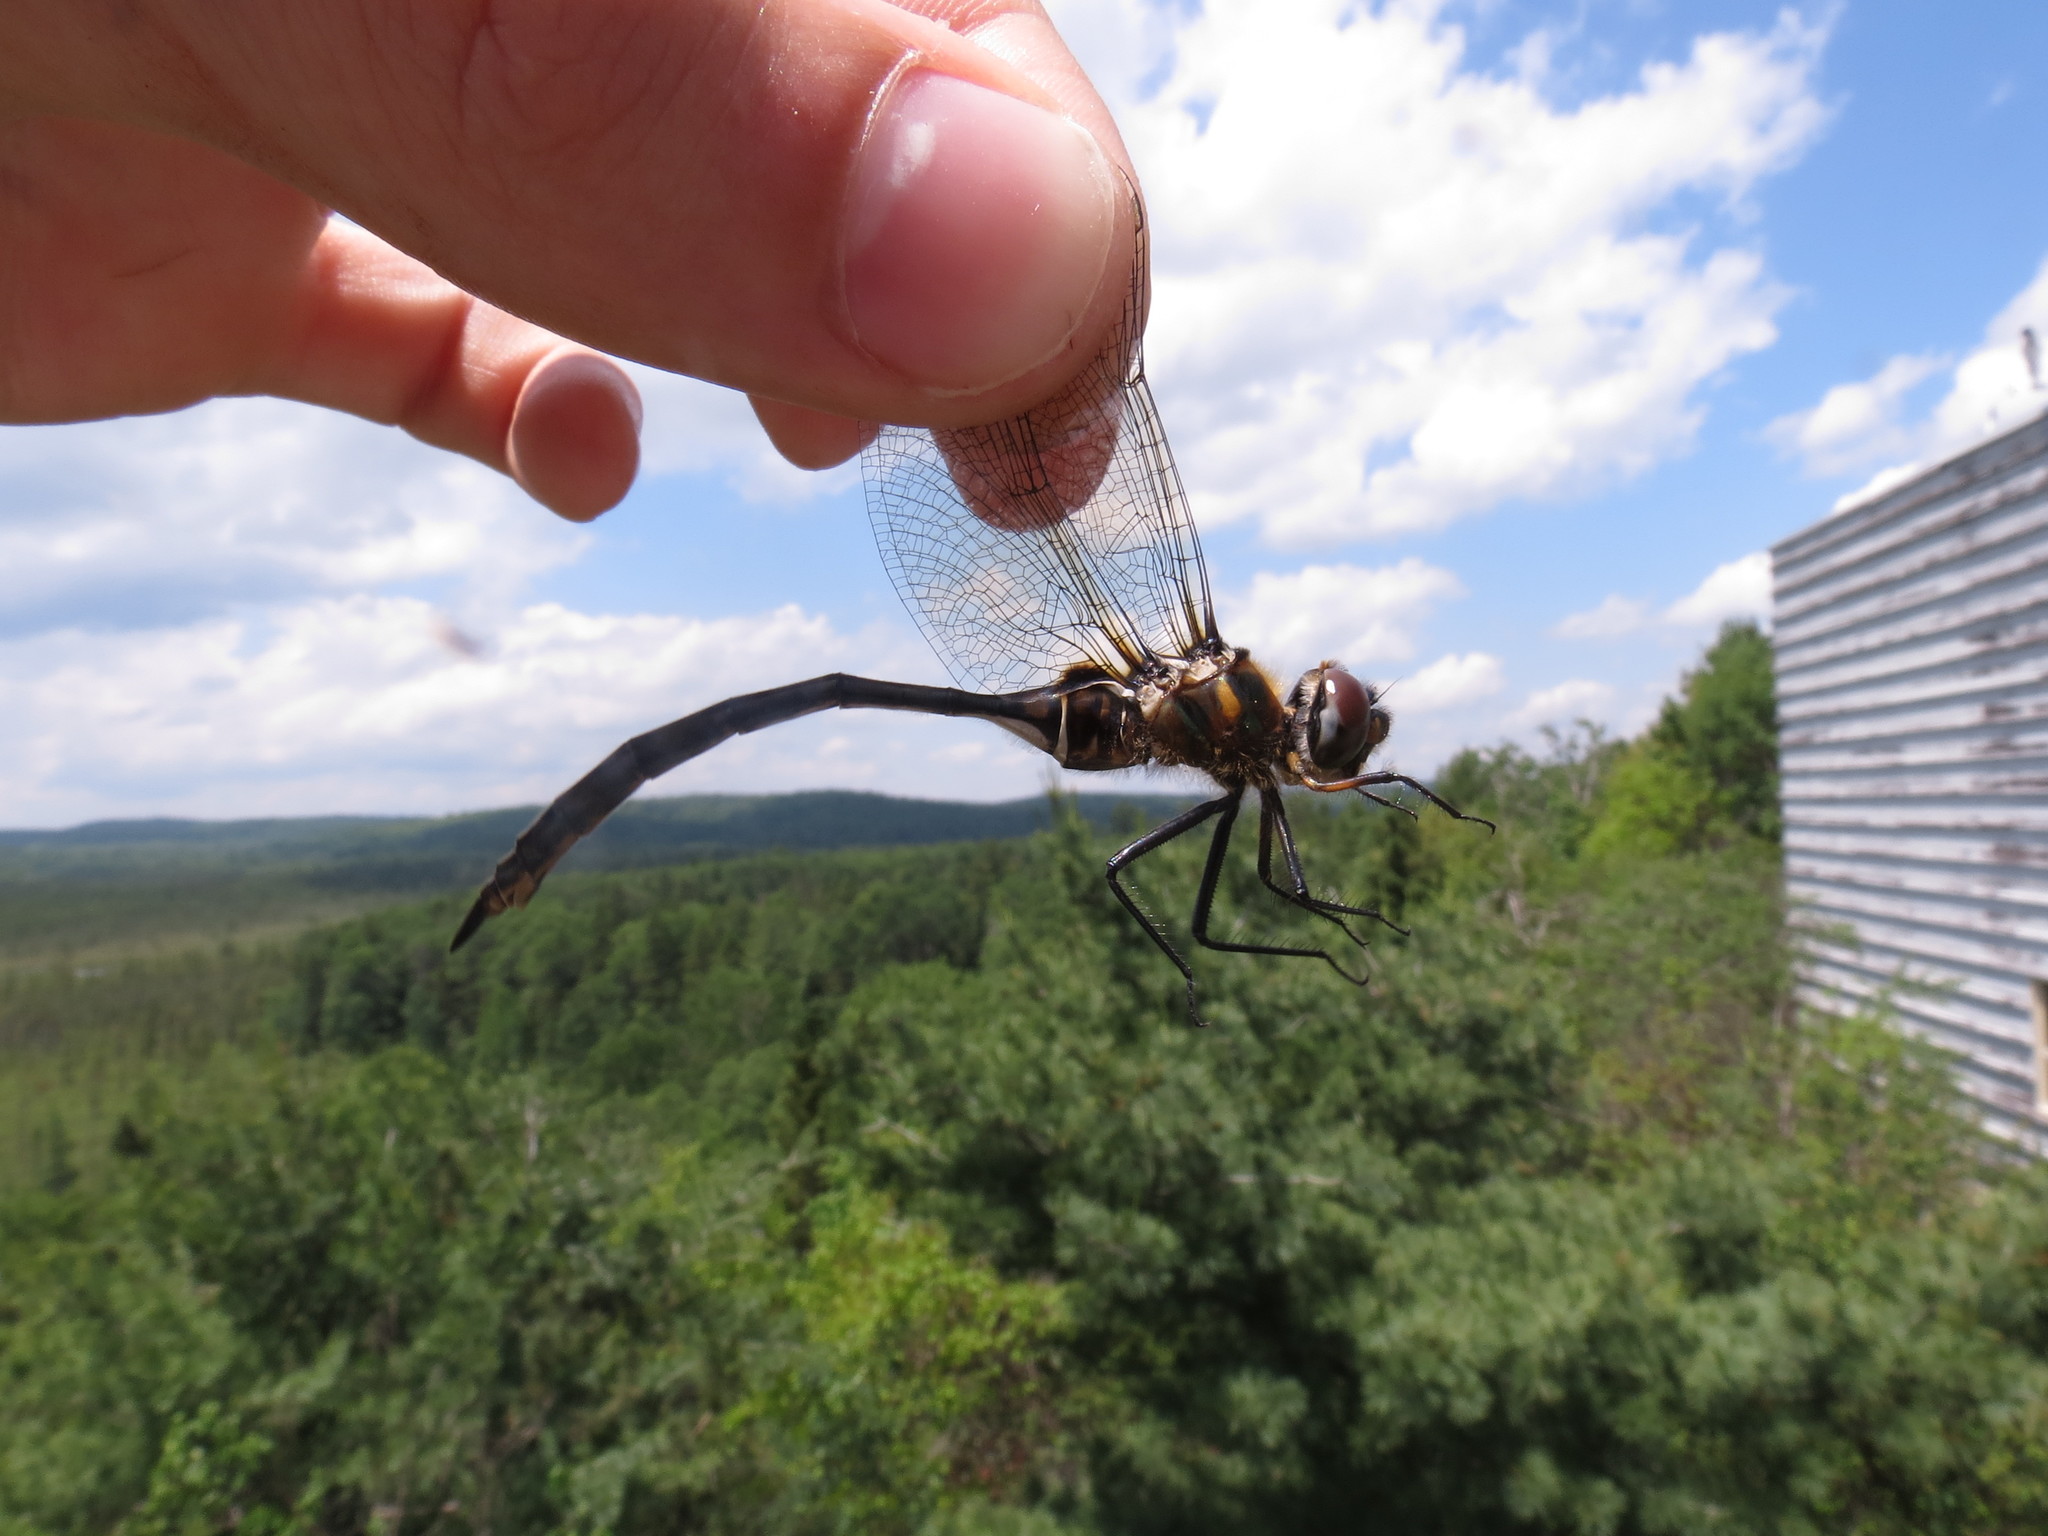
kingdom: Animalia
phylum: Arthropoda
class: Insecta
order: Odonata
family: Corduliidae
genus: Somatochlora
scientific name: Somatochlora franklini
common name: Delicate emerald
